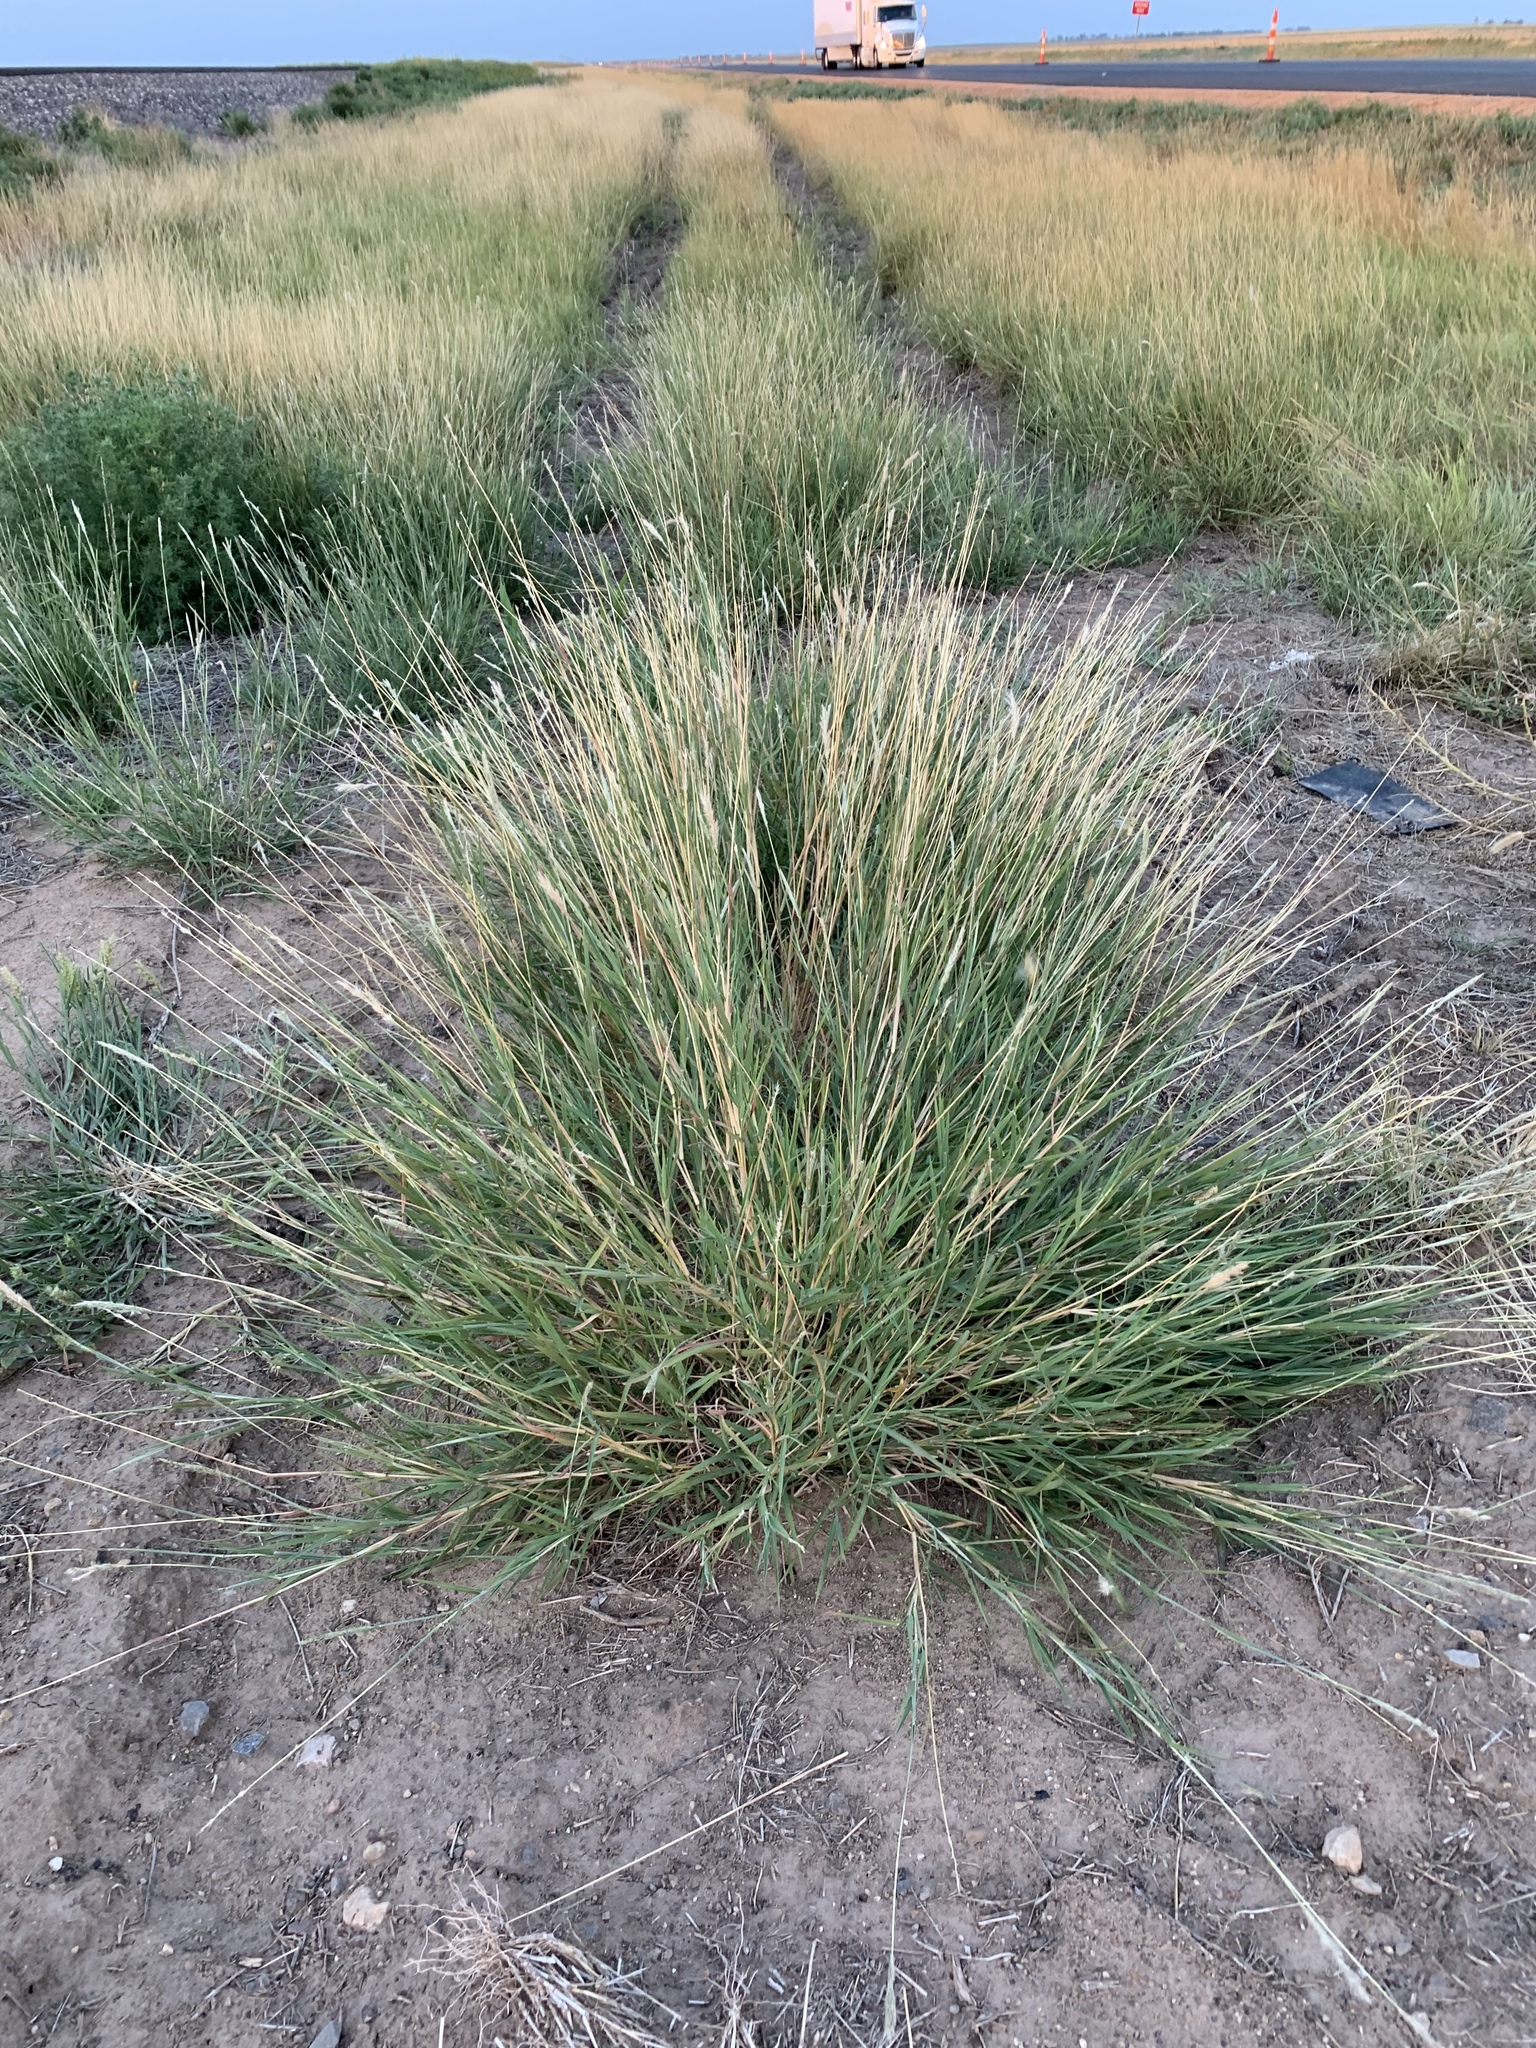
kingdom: Plantae
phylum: Tracheophyta
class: Liliopsida
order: Poales
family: Poaceae
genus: Bothriochloa
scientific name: Bothriochloa torreyana
